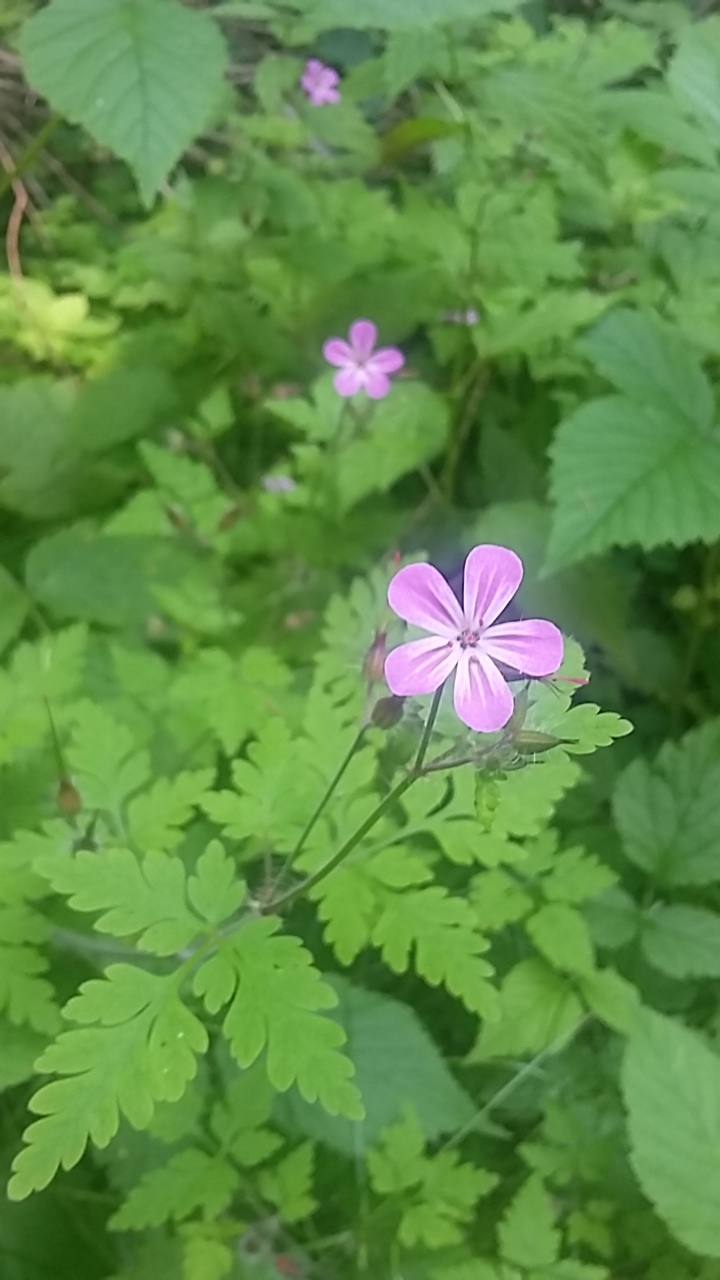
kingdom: Plantae
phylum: Tracheophyta
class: Magnoliopsida
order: Geraniales
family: Geraniaceae
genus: Geranium
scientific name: Geranium robertianum
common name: Herb-robert
